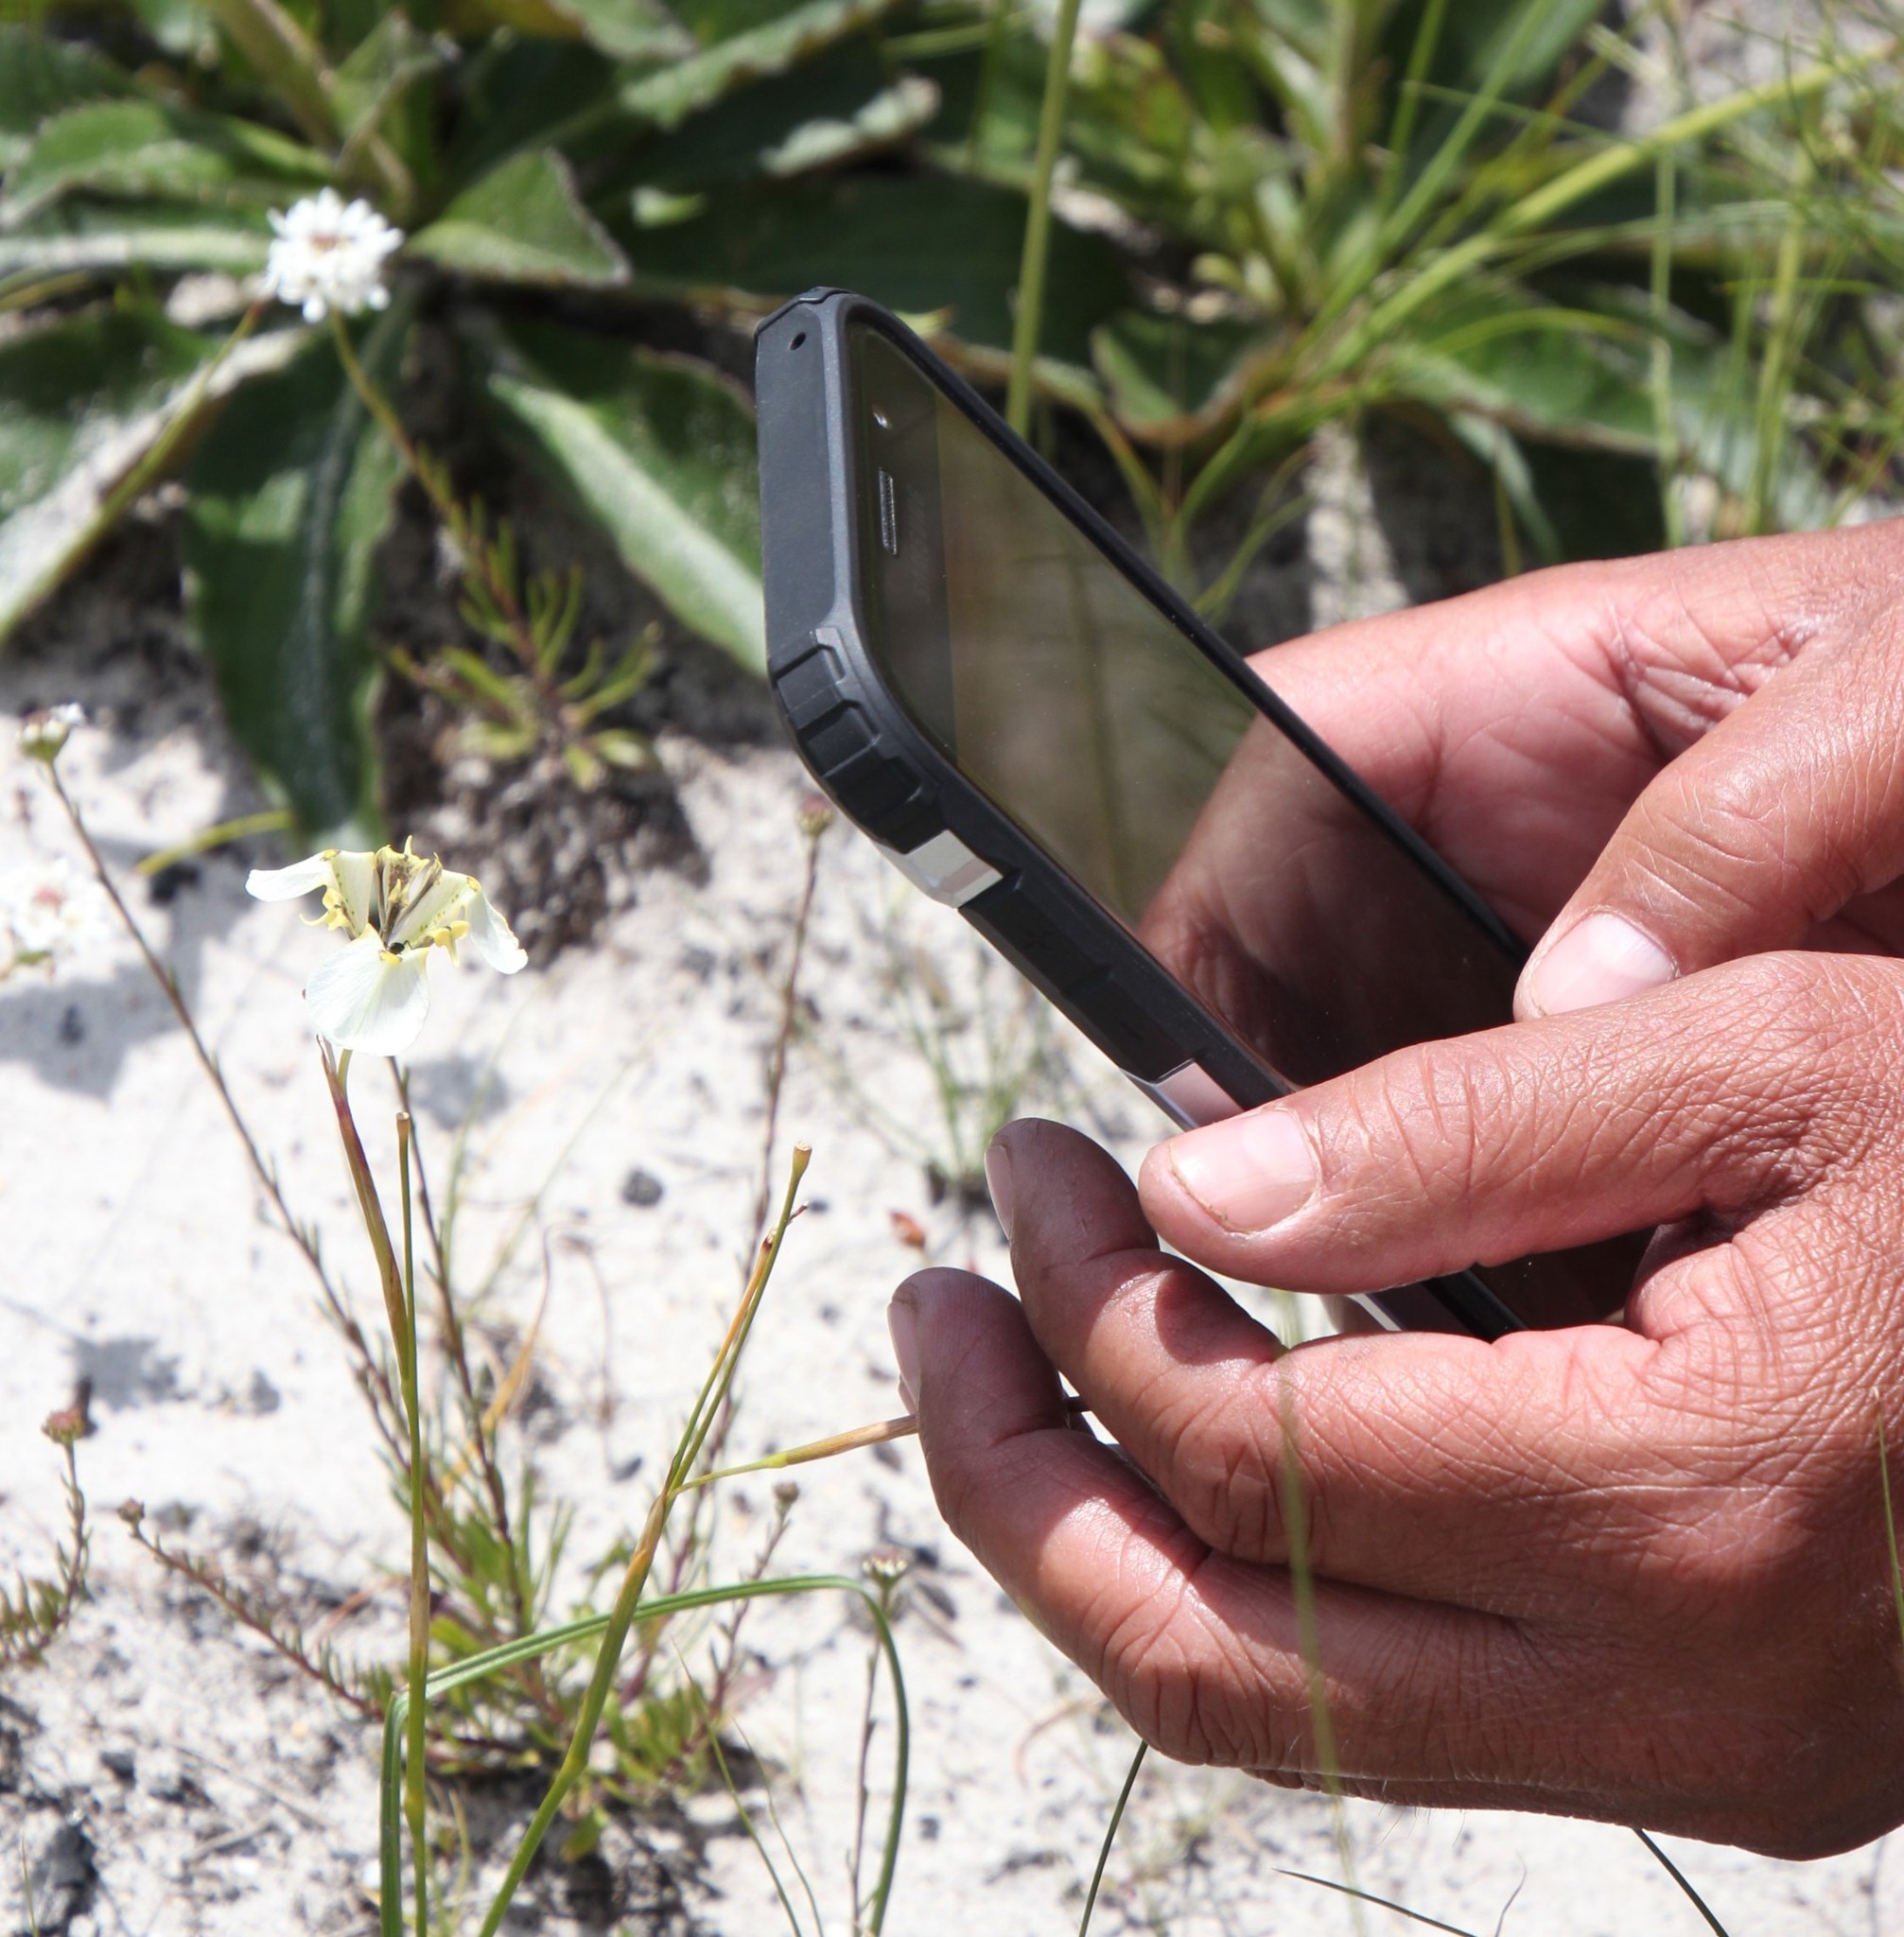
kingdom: Plantae
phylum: Tracheophyta
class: Liliopsida
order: Asparagales
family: Iridaceae
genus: Moraea
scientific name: Moraea lurida
